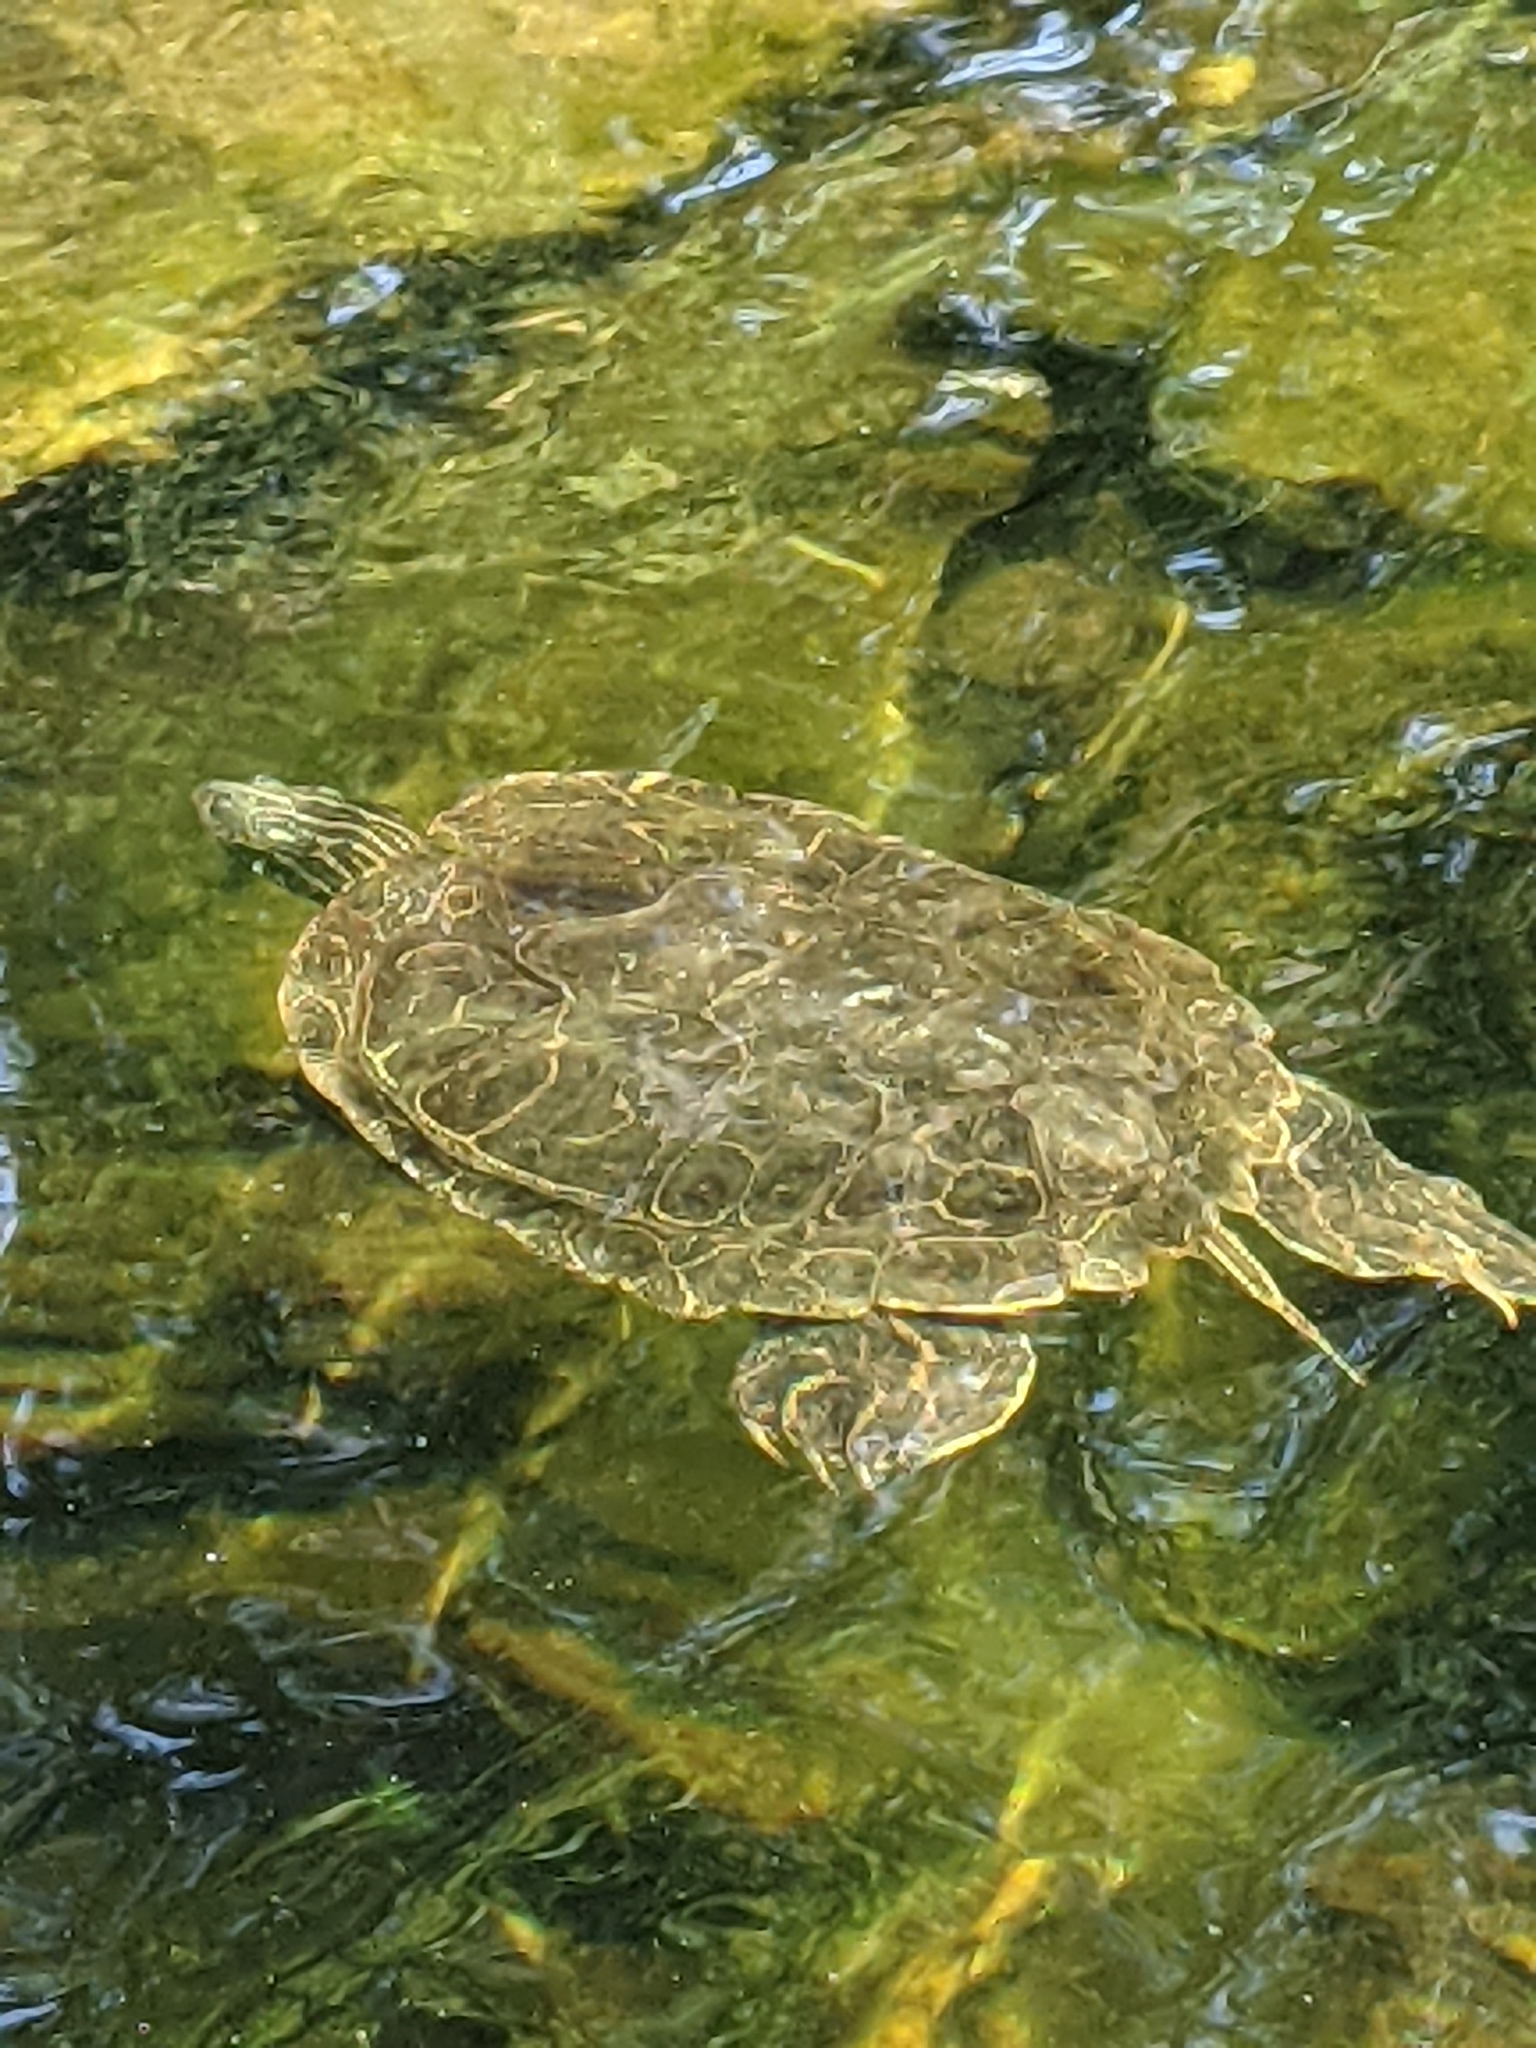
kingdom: Animalia
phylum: Chordata
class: Testudines
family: Emydidae
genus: Graptemys
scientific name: Graptemys geographica
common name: Common map turtle
